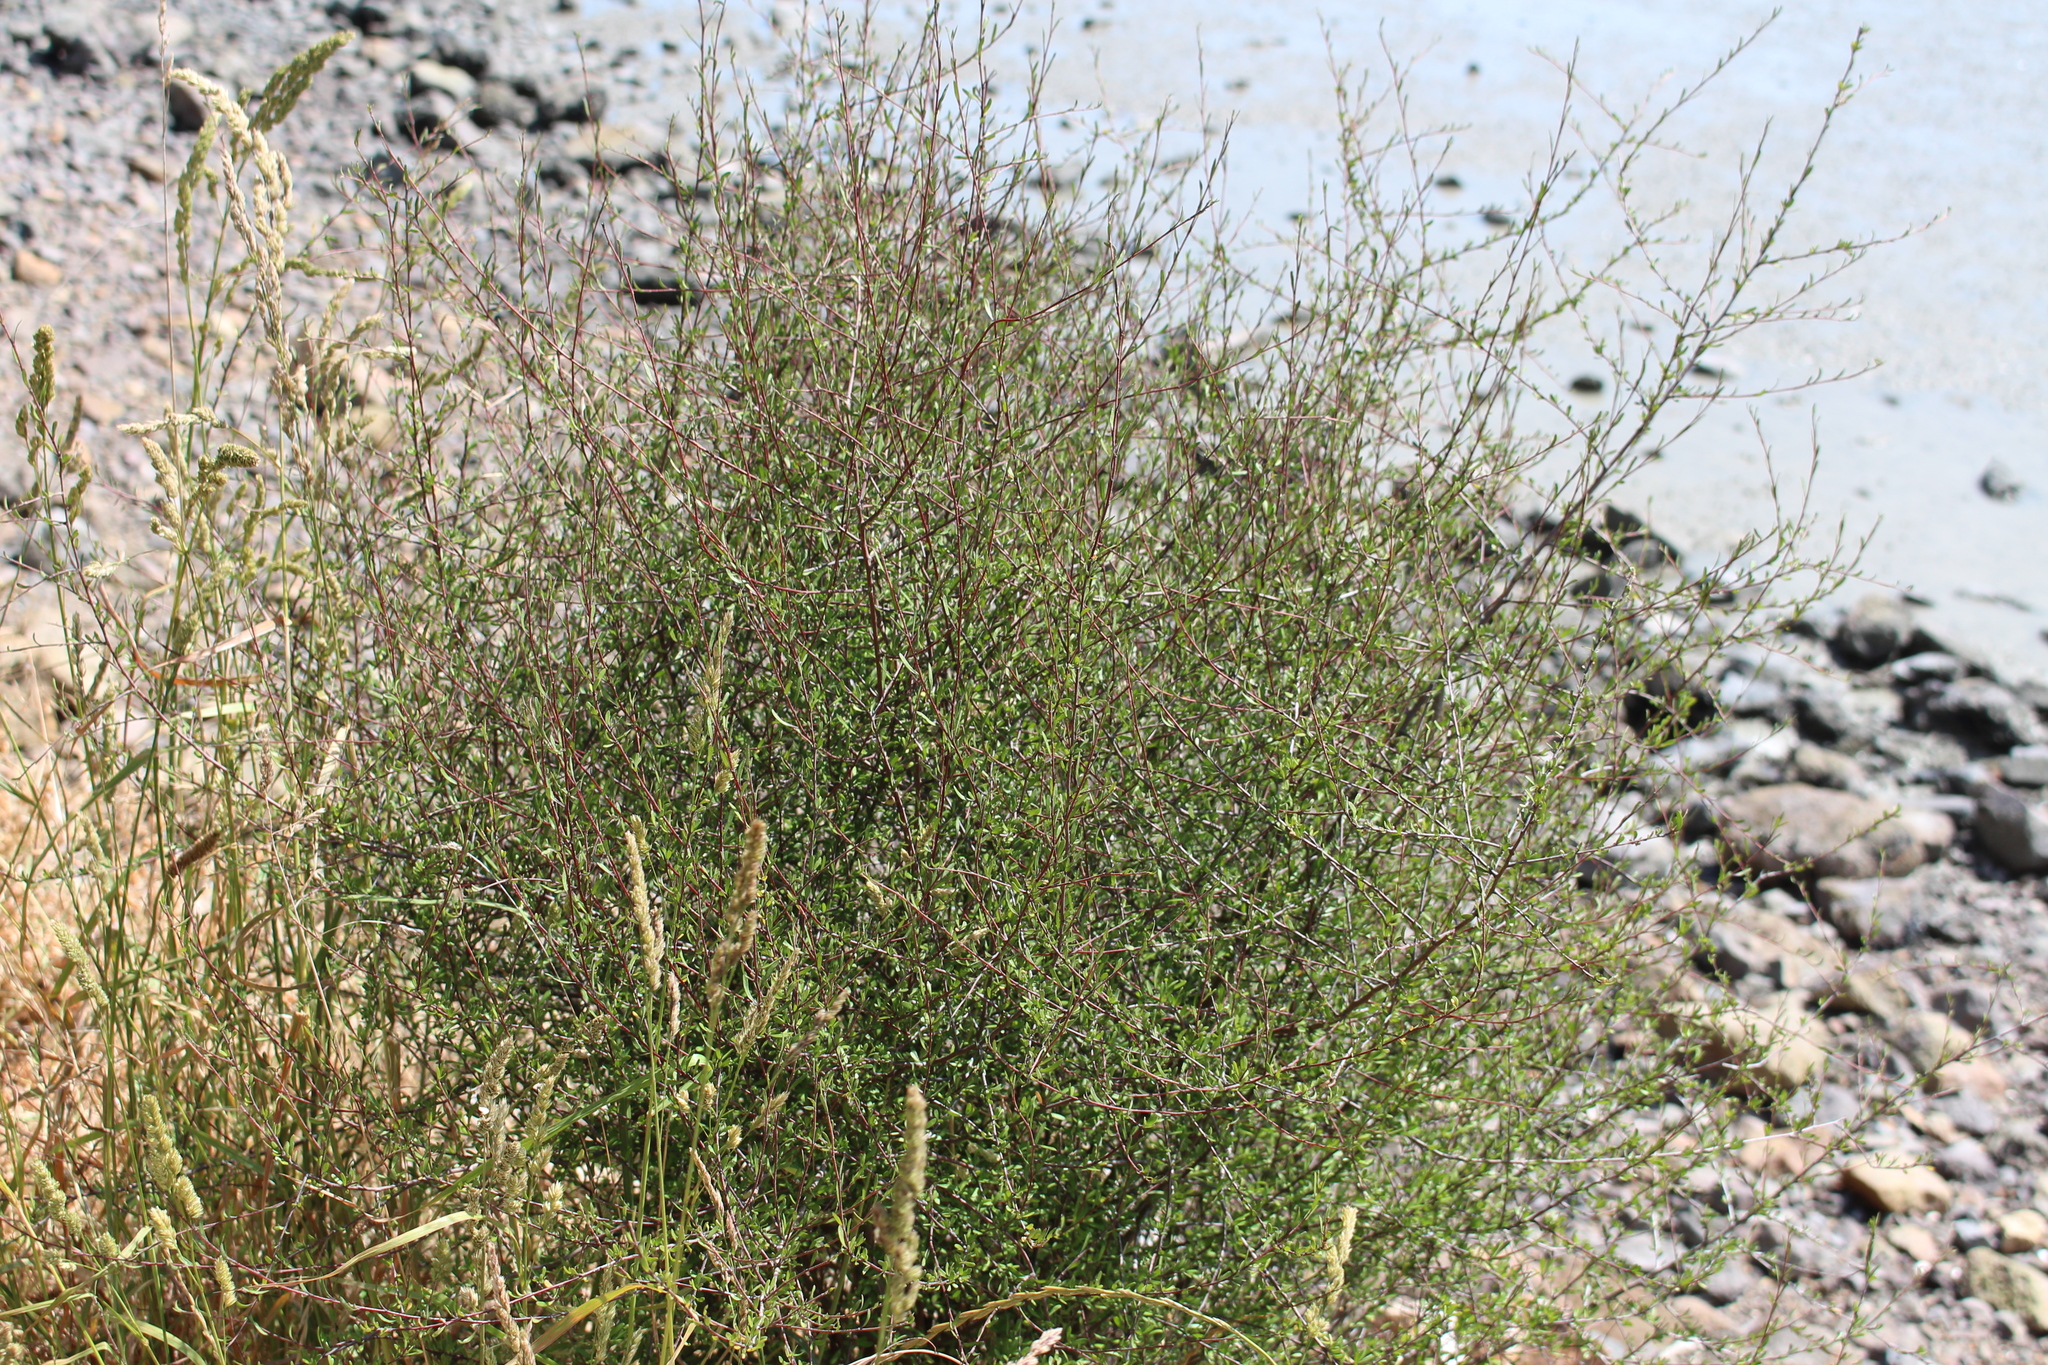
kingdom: Plantae
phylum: Tracheophyta
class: Magnoliopsida
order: Malvales
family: Malvaceae
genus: Plagianthus
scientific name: Plagianthus divaricatus
